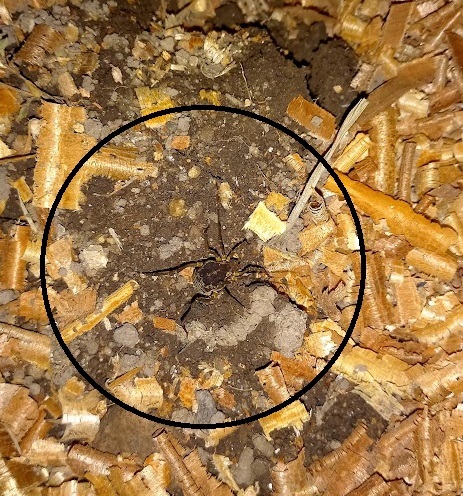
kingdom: Animalia
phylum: Arthropoda
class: Arachnida
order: Opiliones
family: Cosmetidae
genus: Erginulus
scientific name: Erginulus subserialis
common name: Harvestmen
